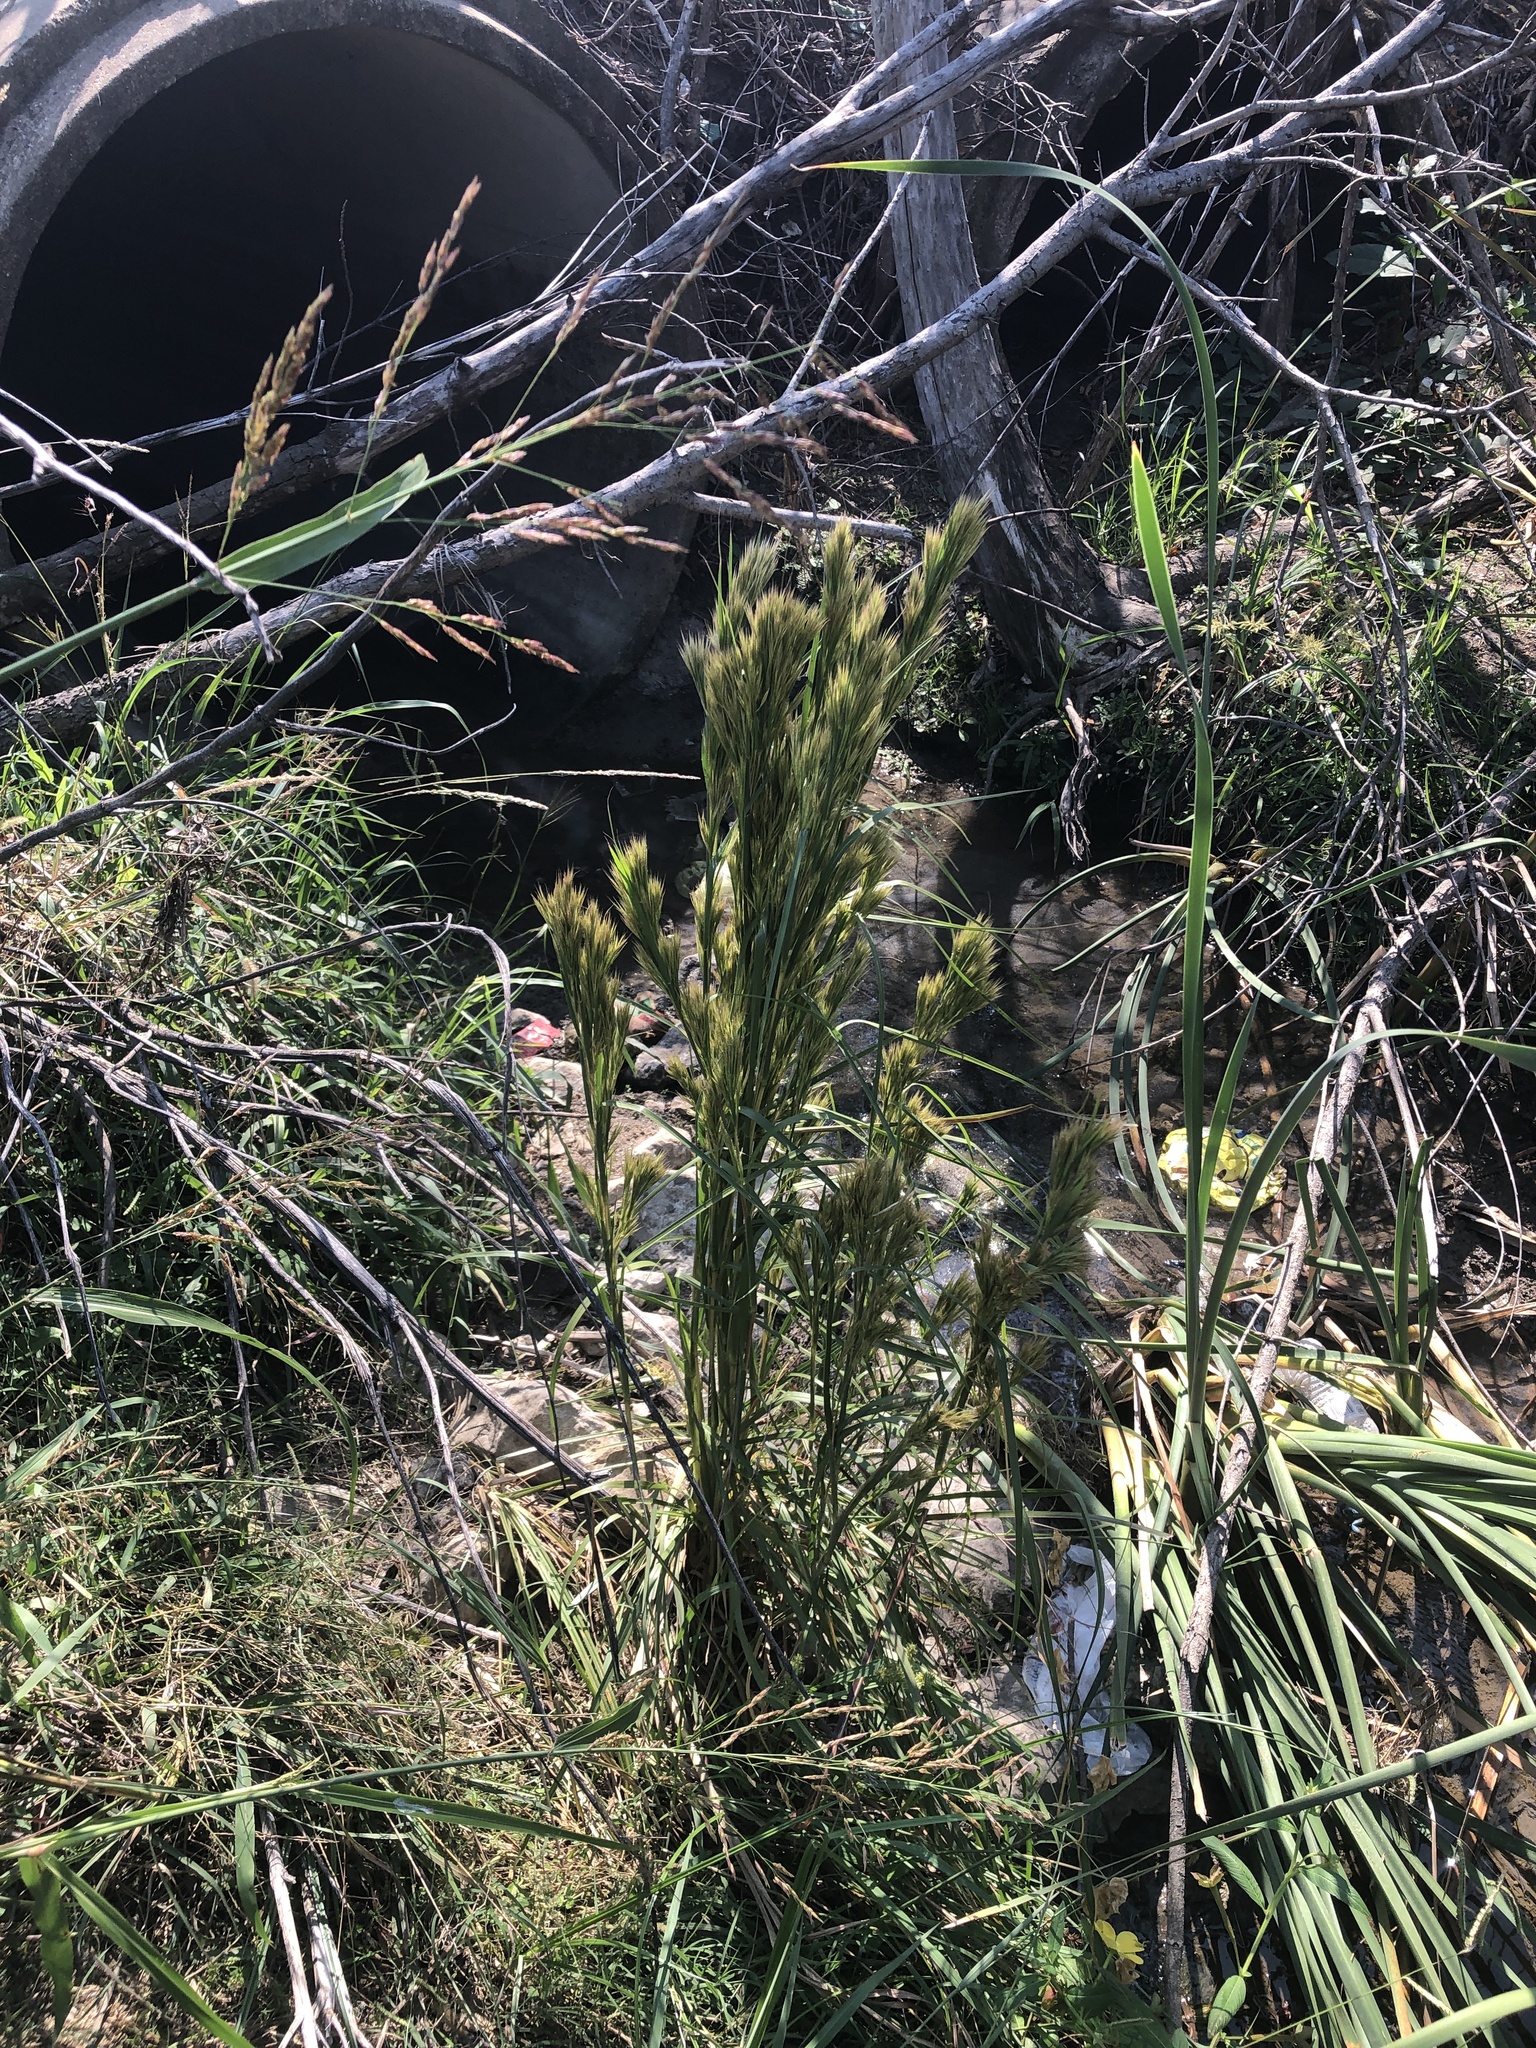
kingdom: Plantae
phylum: Tracheophyta
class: Liliopsida
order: Poales
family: Poaceae
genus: Andropogon
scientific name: Andropogon tenuispatheus
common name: Bushy bluestem
